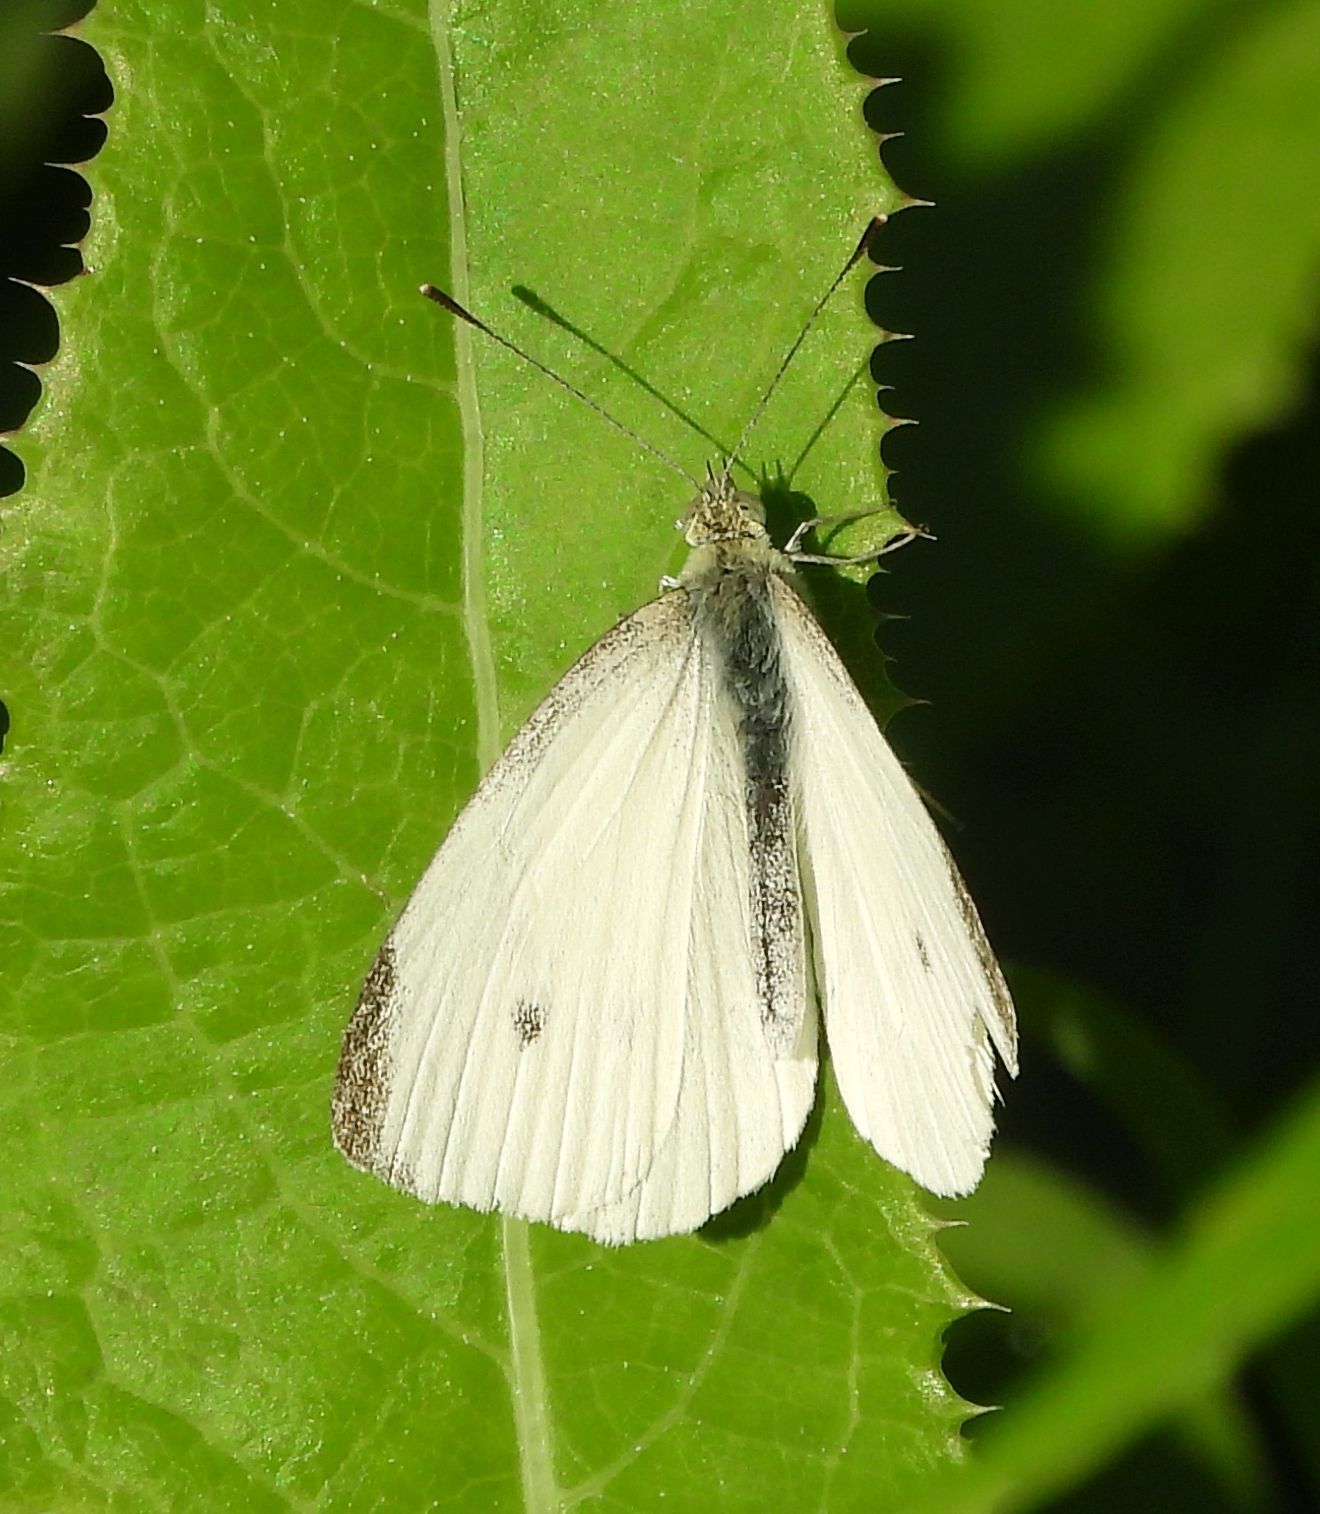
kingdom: Animalia
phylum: Arthropoda
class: Insecta
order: Lepidoptera
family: Pieridae
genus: Pieris
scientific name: Pieris rapae
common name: Small white
